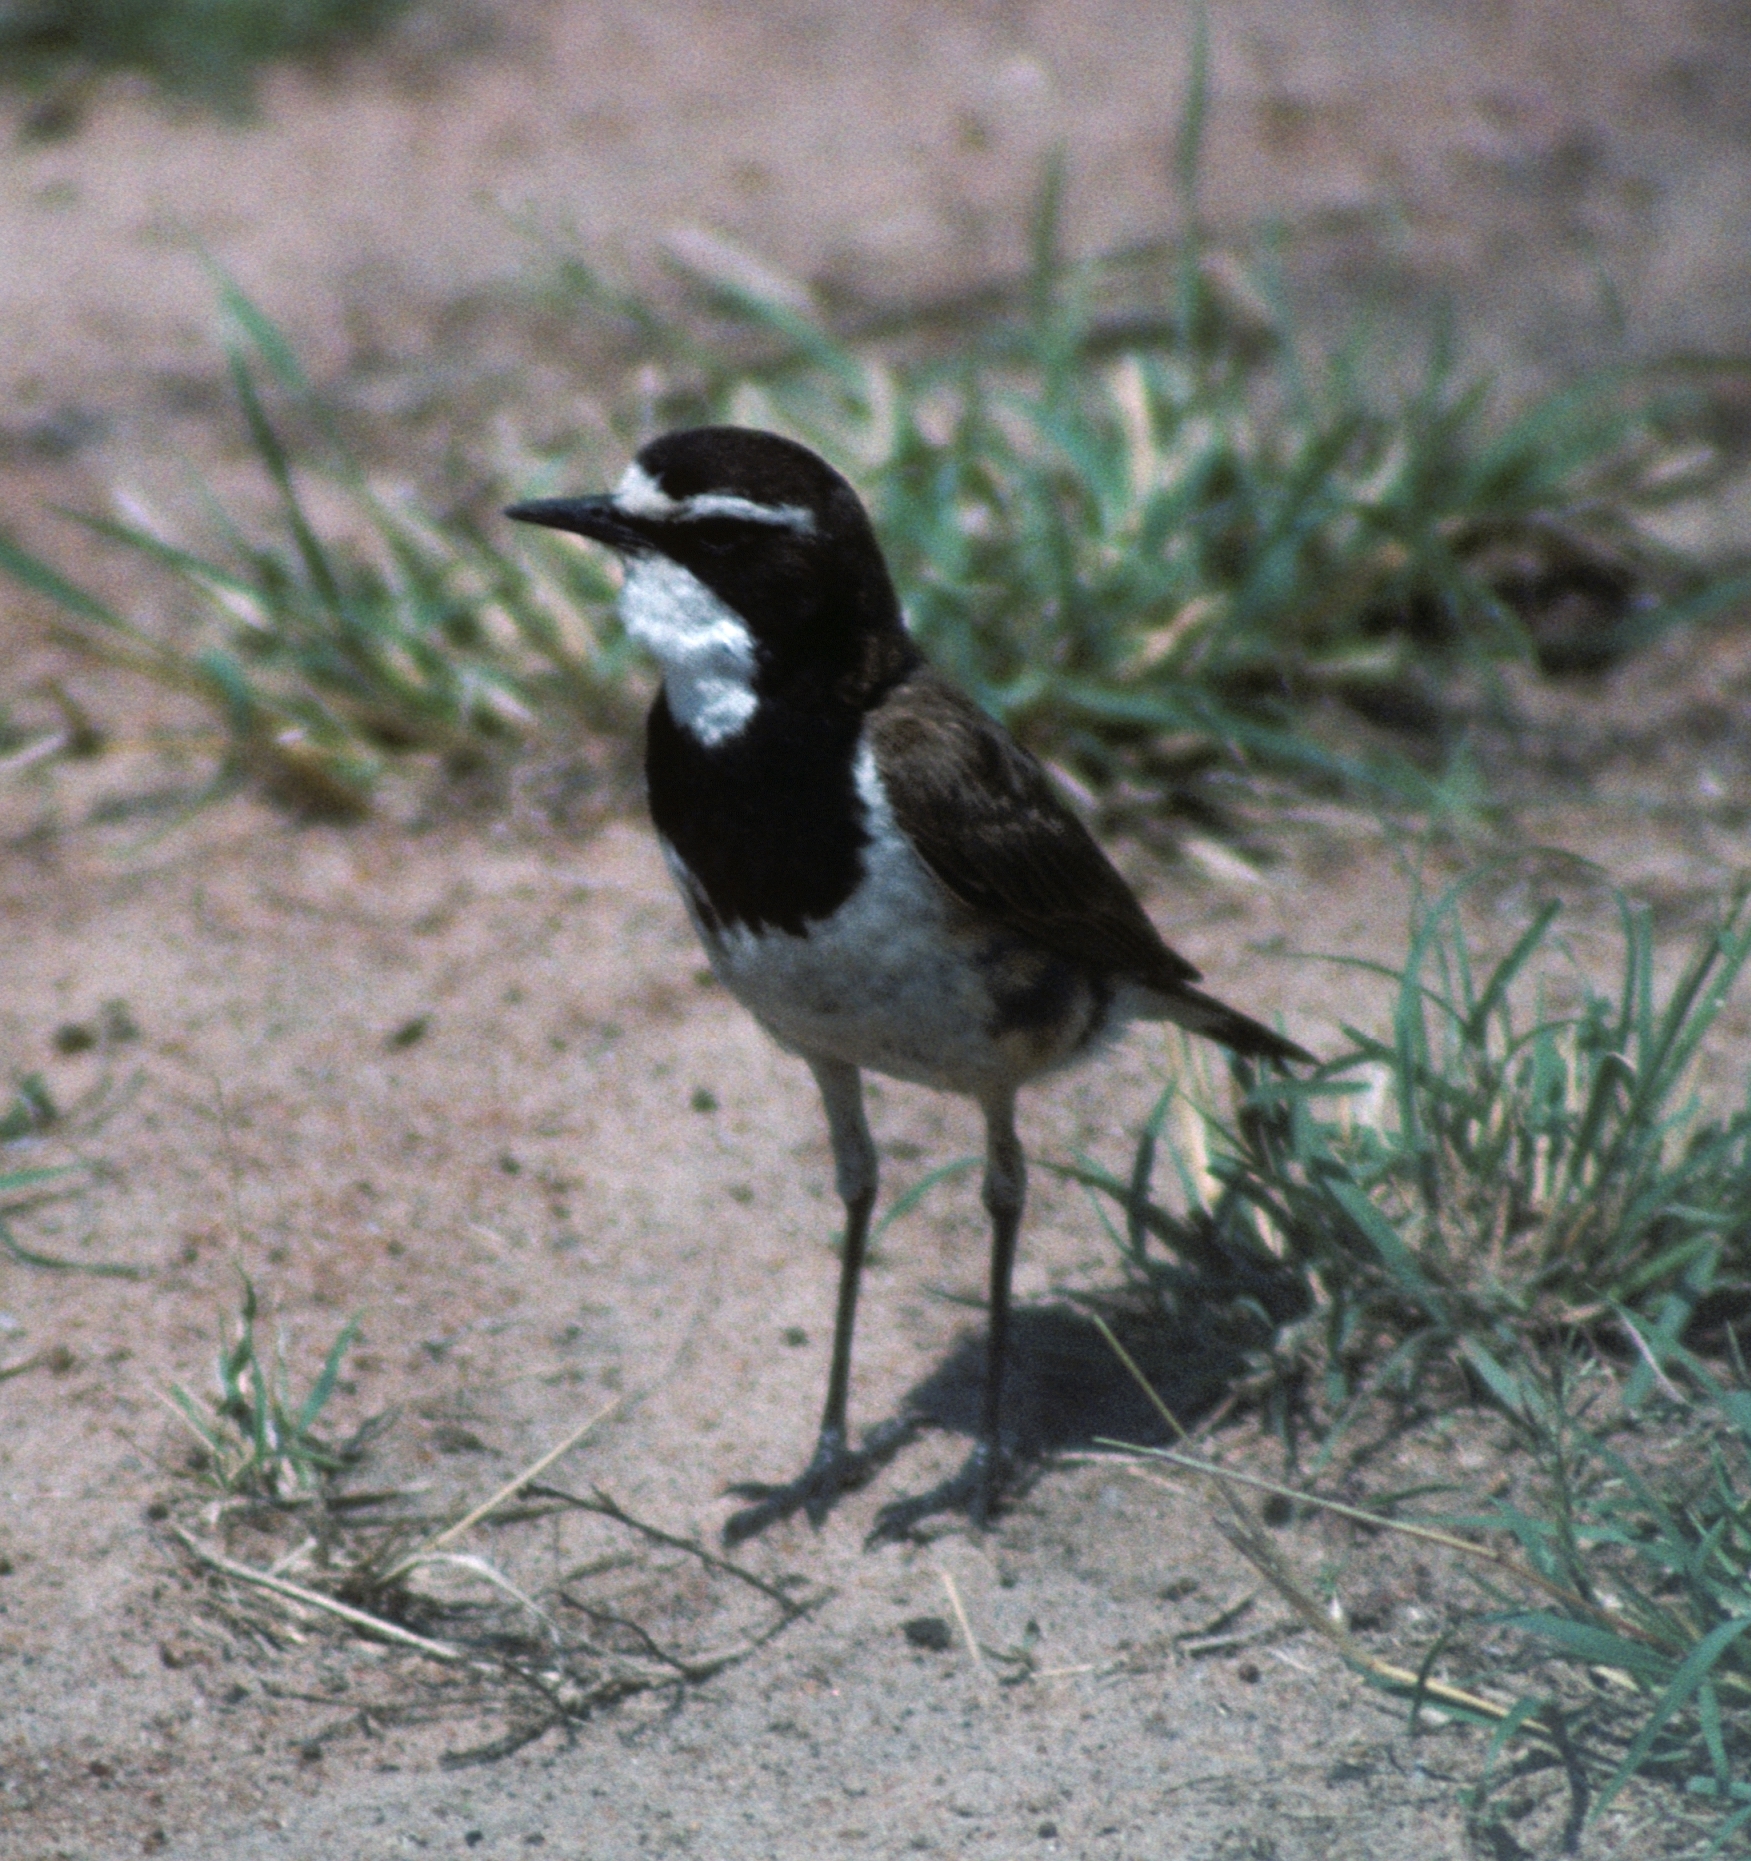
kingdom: Animalia
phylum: Chordata
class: Aves
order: Passeriformes
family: Muscicapidae
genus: Oenanthe
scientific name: Oenanthe pileata
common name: Capped wheatear
